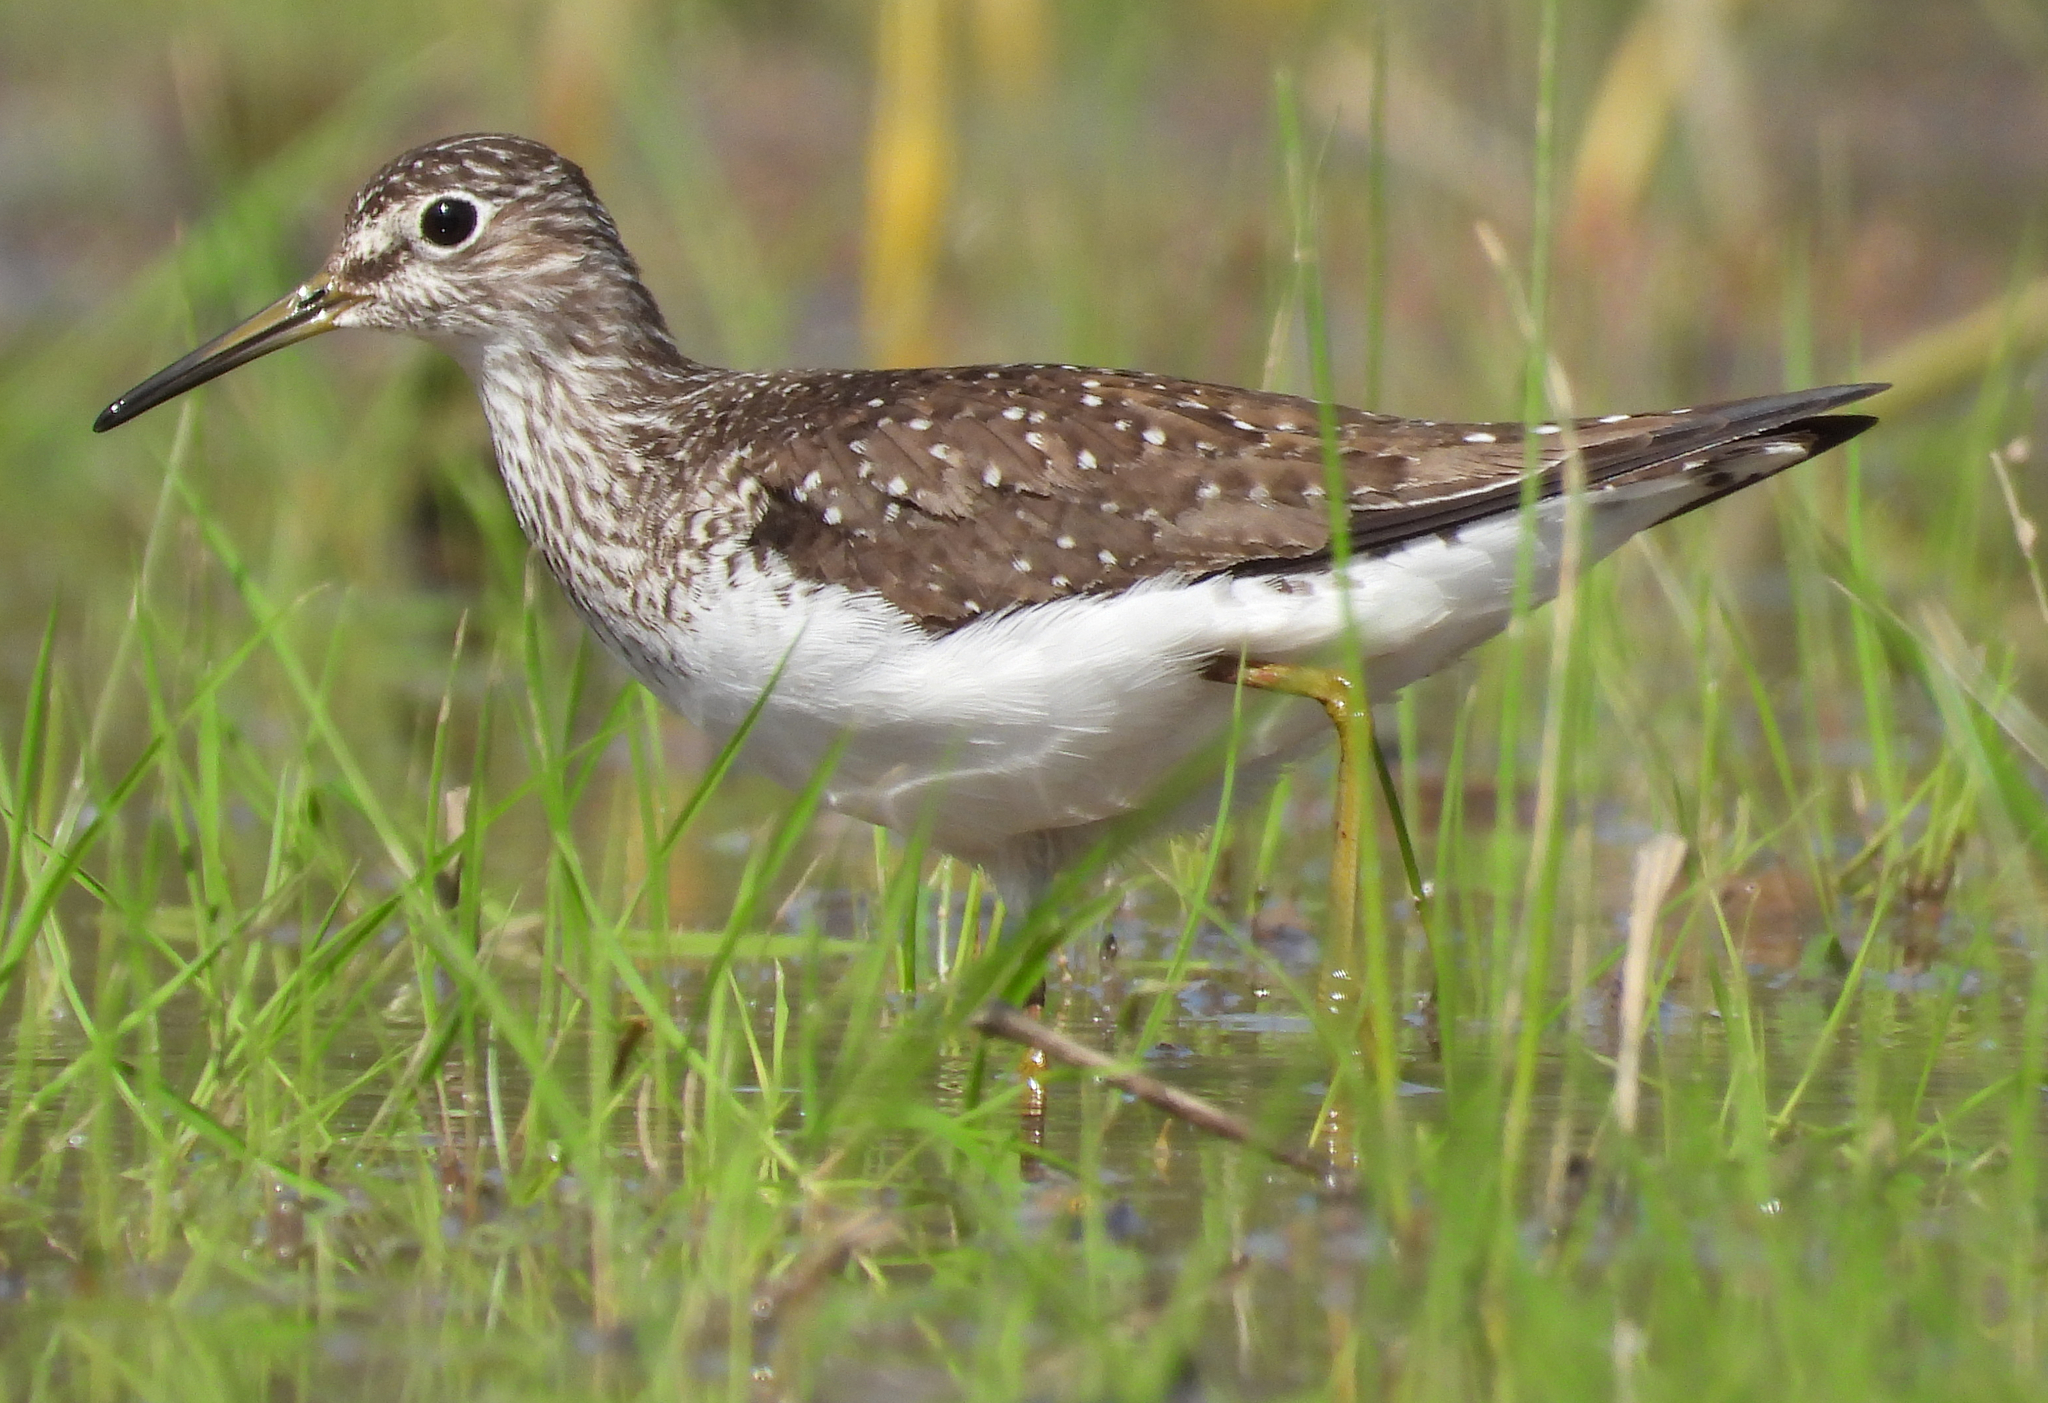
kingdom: Animalia
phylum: Chordata
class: Aves
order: Charadriiformes
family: Scolopacidae
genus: Tringa
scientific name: Tringa solitaria
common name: Solitary sandpiper
